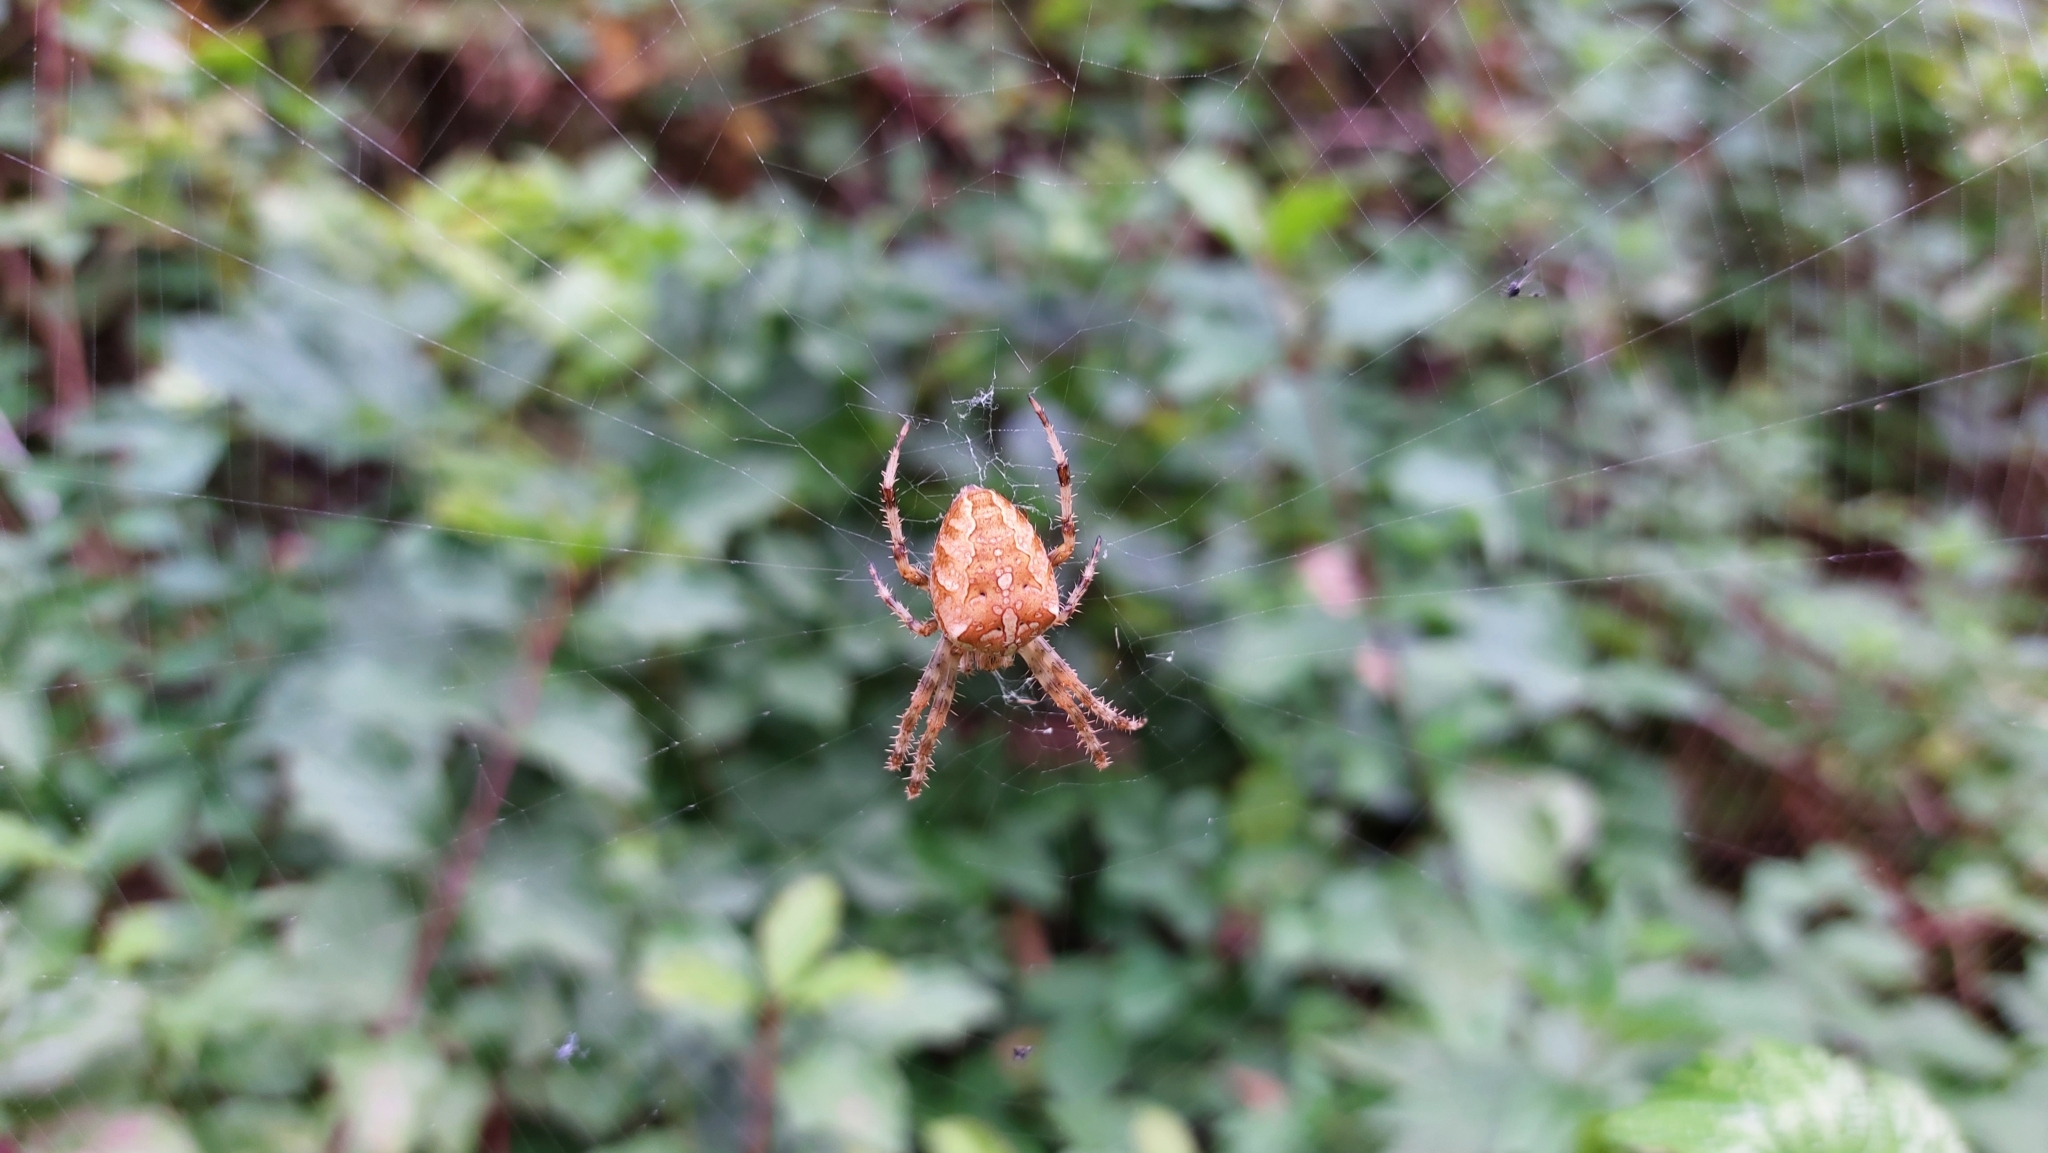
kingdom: Animalia
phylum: Arthropoda
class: Arachnida
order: Araneae
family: Araneidae
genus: Araneus
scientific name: Araneus diadematus
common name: Cross orbweaver
